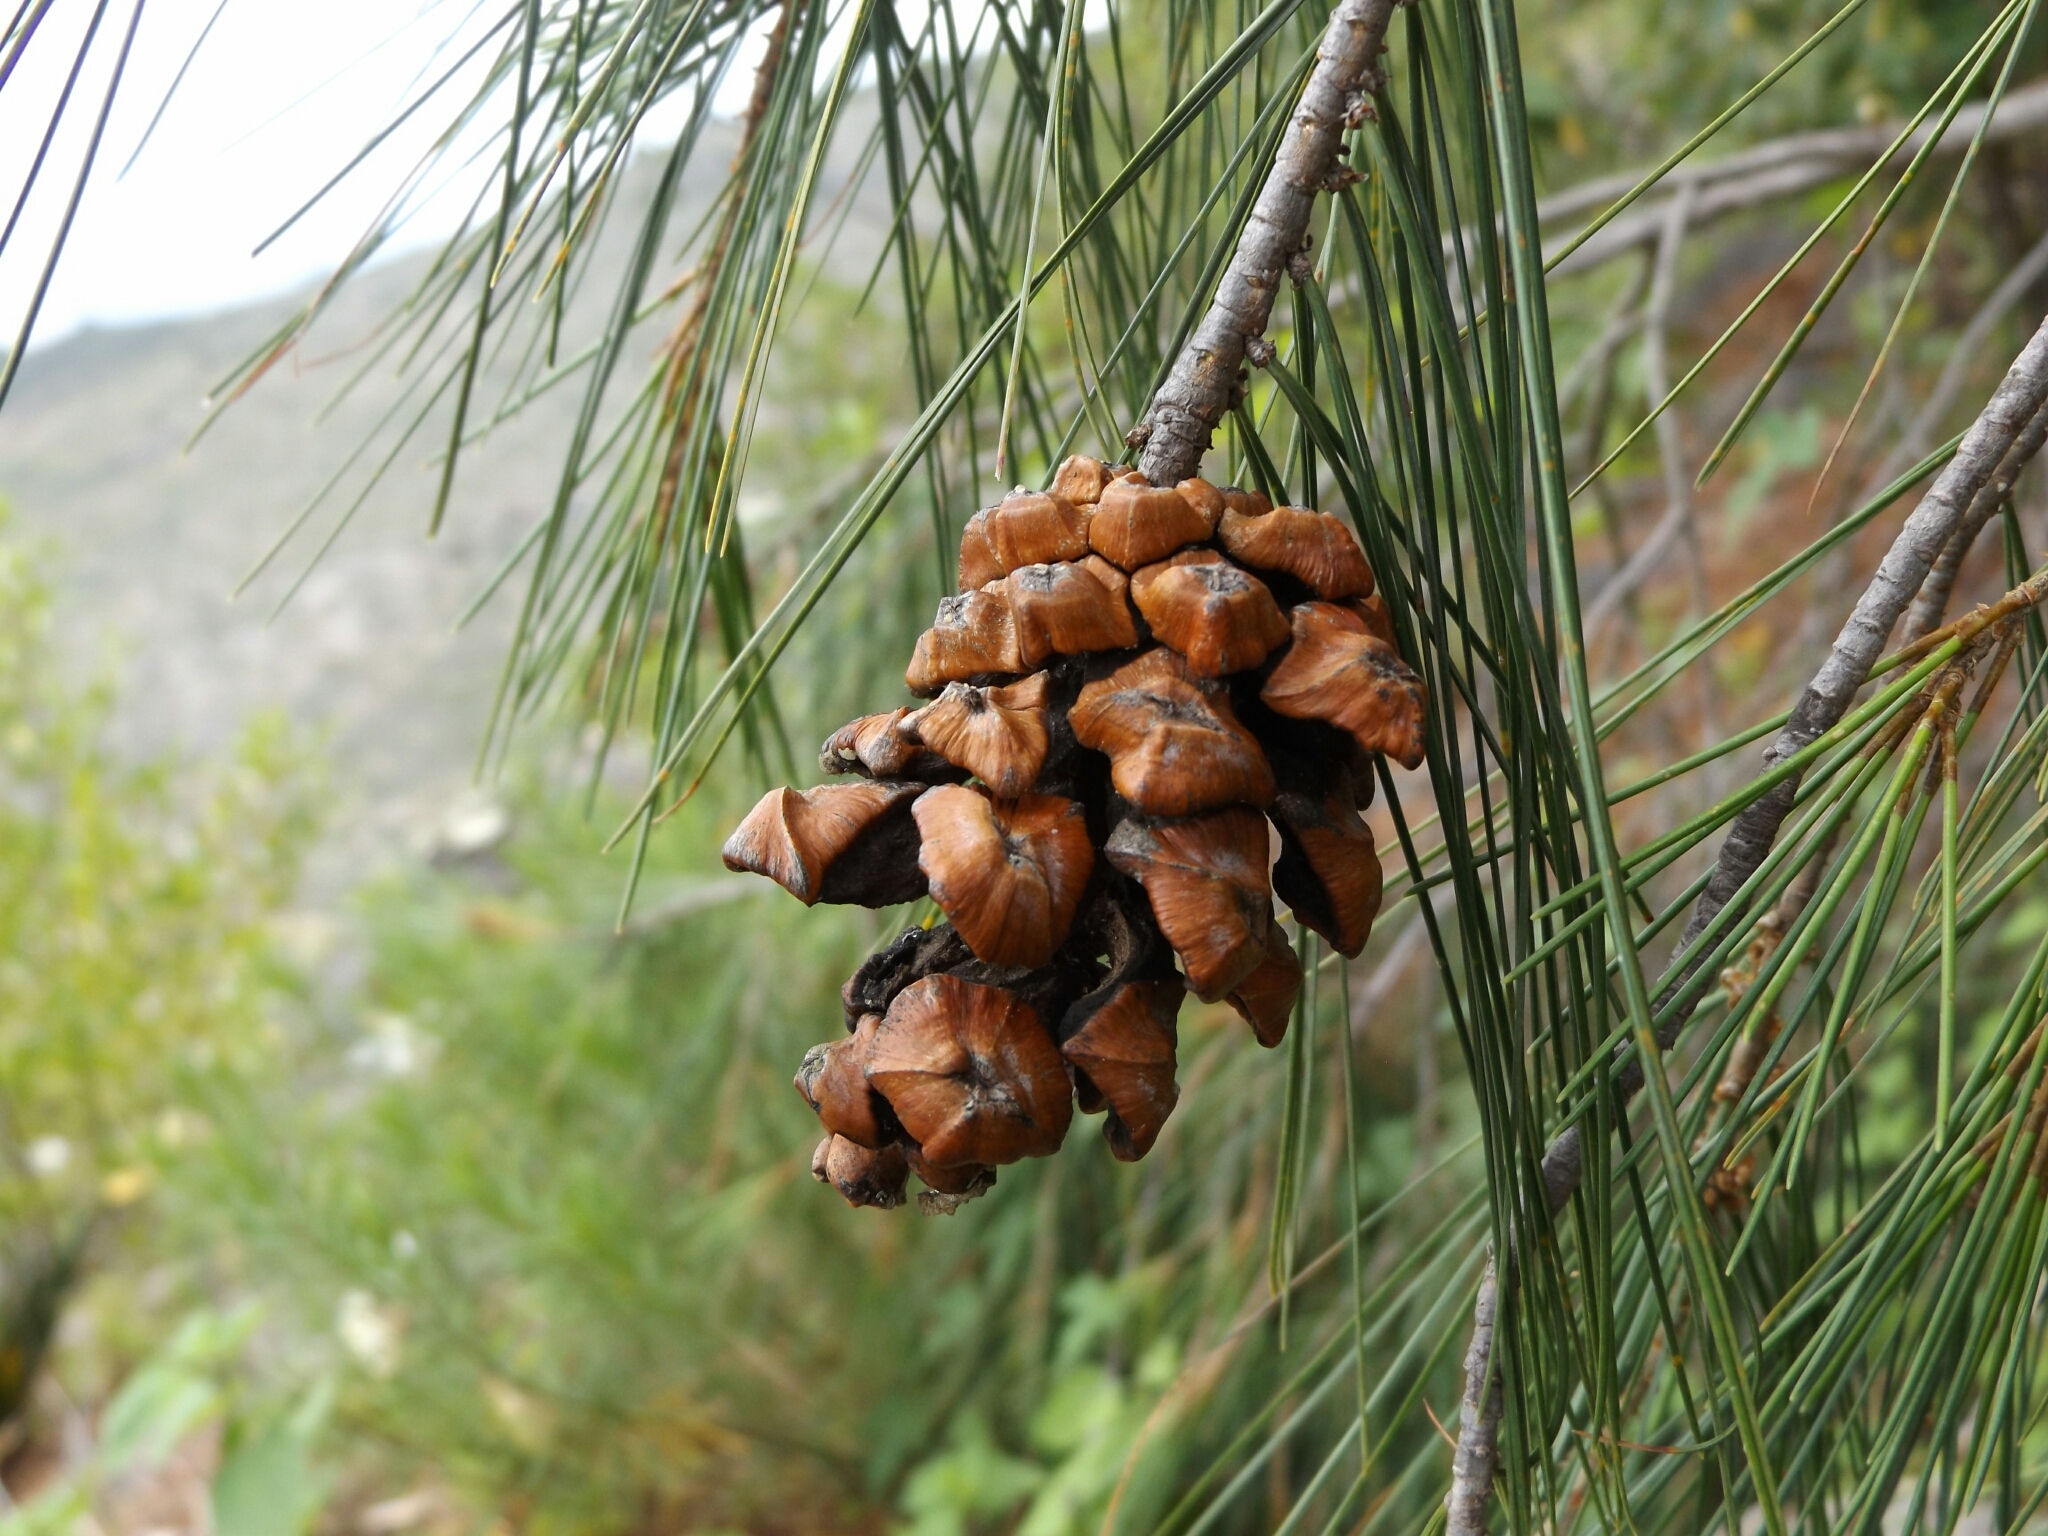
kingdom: Plantae
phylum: Tracheophyta
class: Pinopsida
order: Pinales
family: Pinaceae
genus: Pinus
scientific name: Pinus pinceana
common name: Pince's pinyon pine
